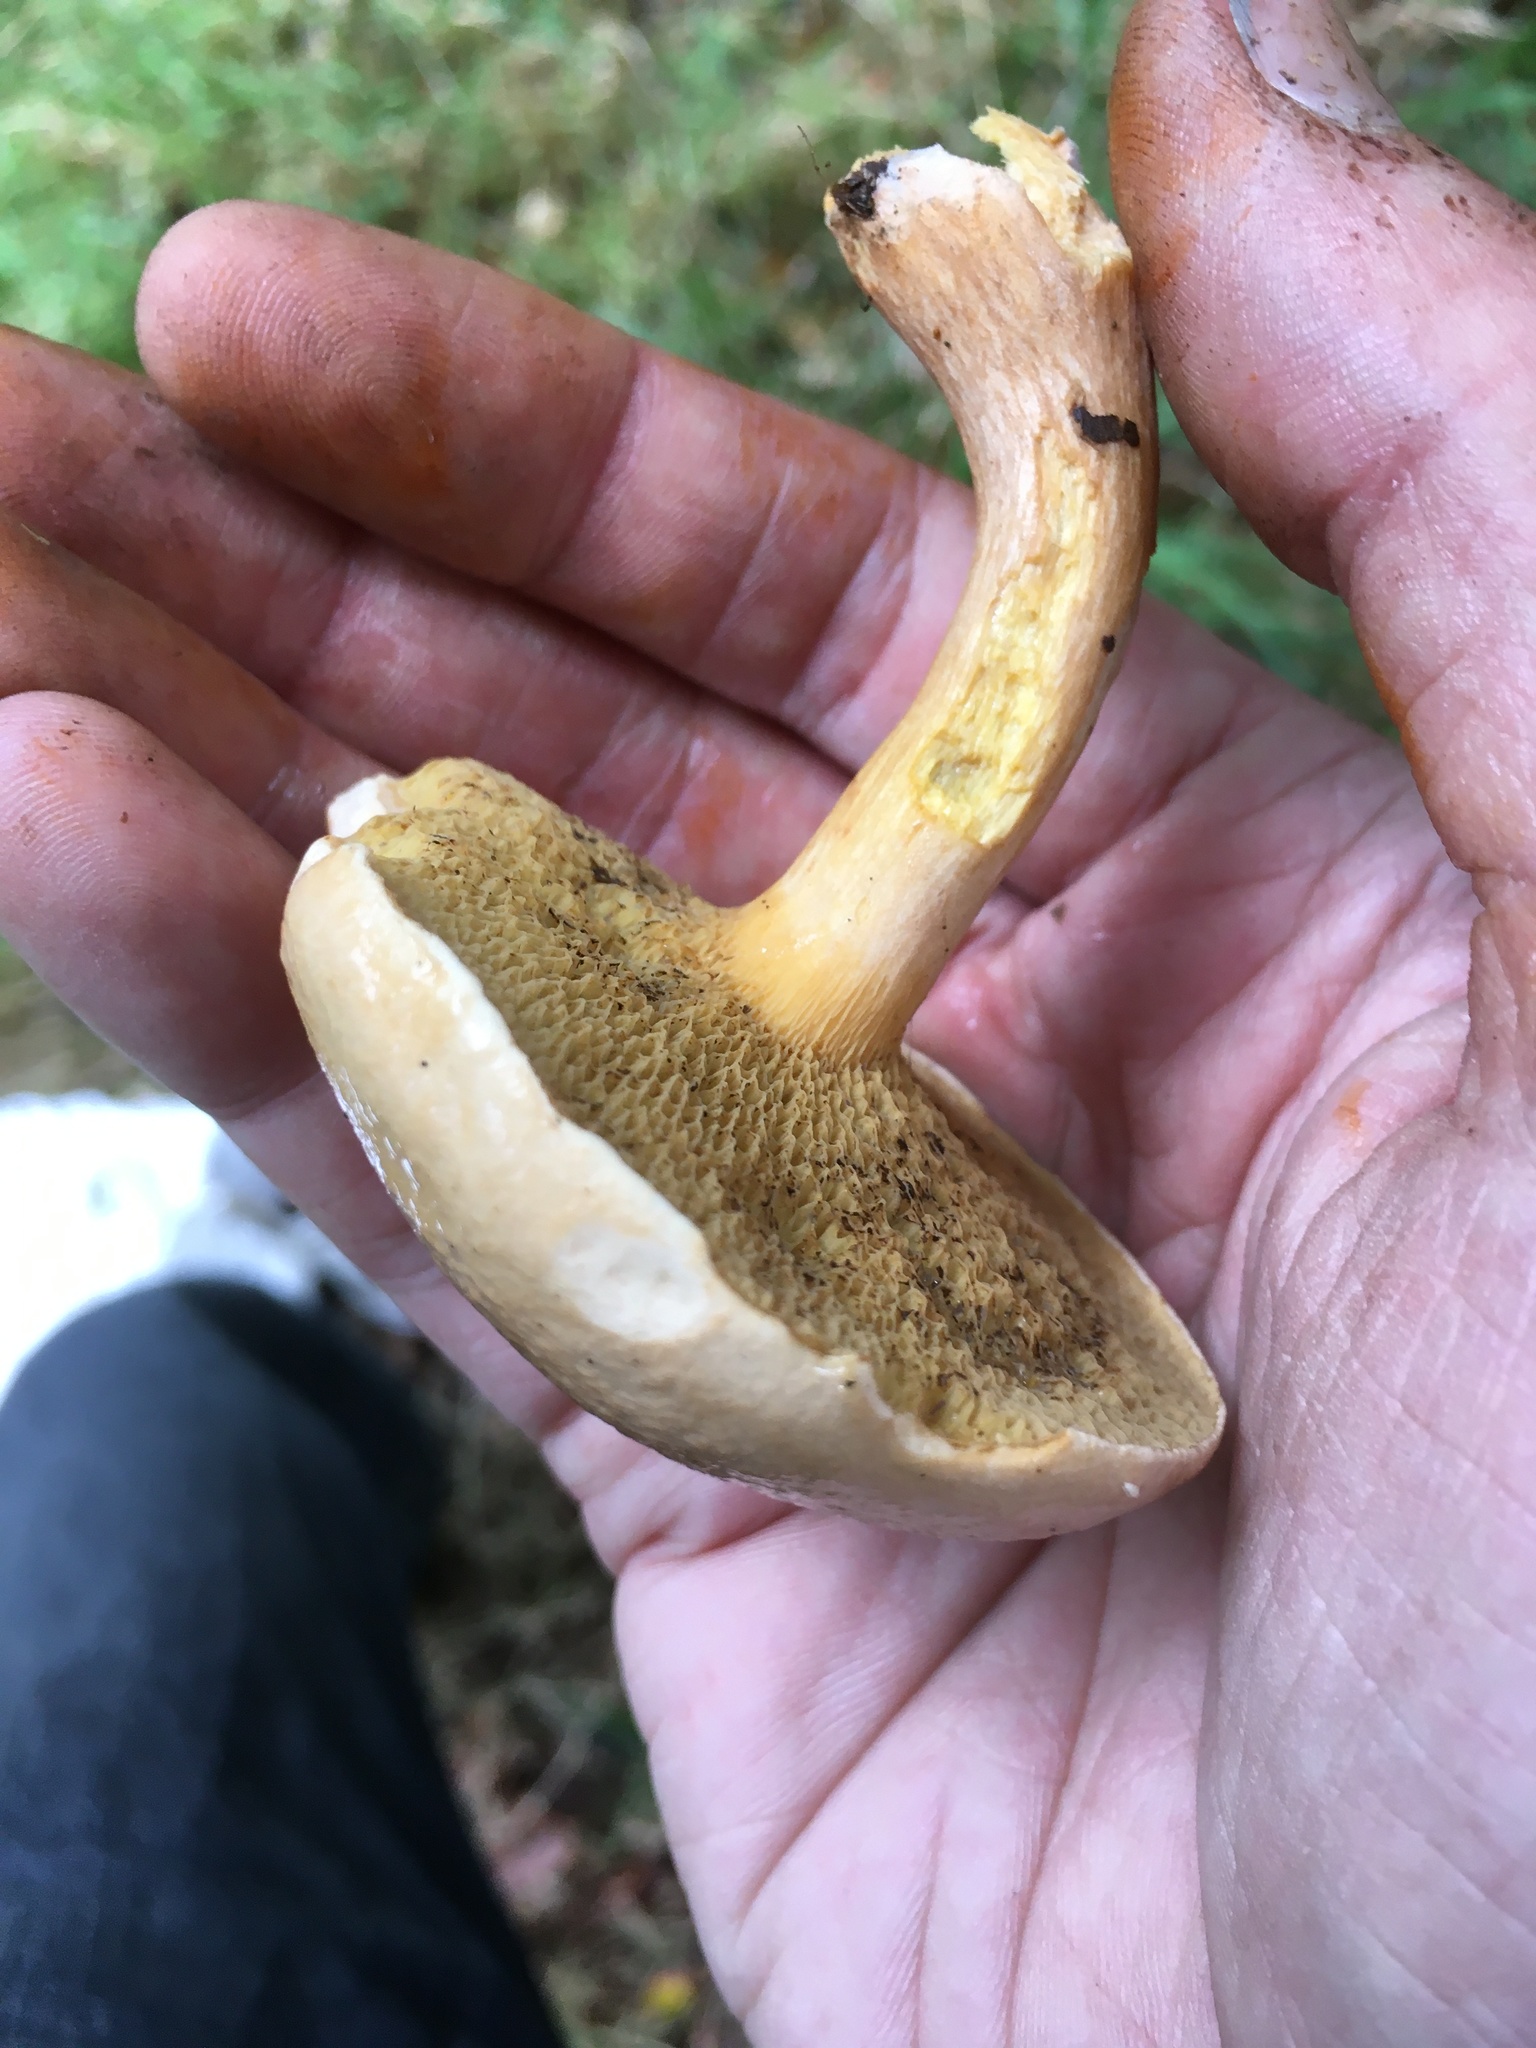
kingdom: Fungi
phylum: Basidiomycota
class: Agaricomycetes
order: Boletales
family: Suillaceae
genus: Suillus
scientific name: Suillus bovinus
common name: Bovine bolete
